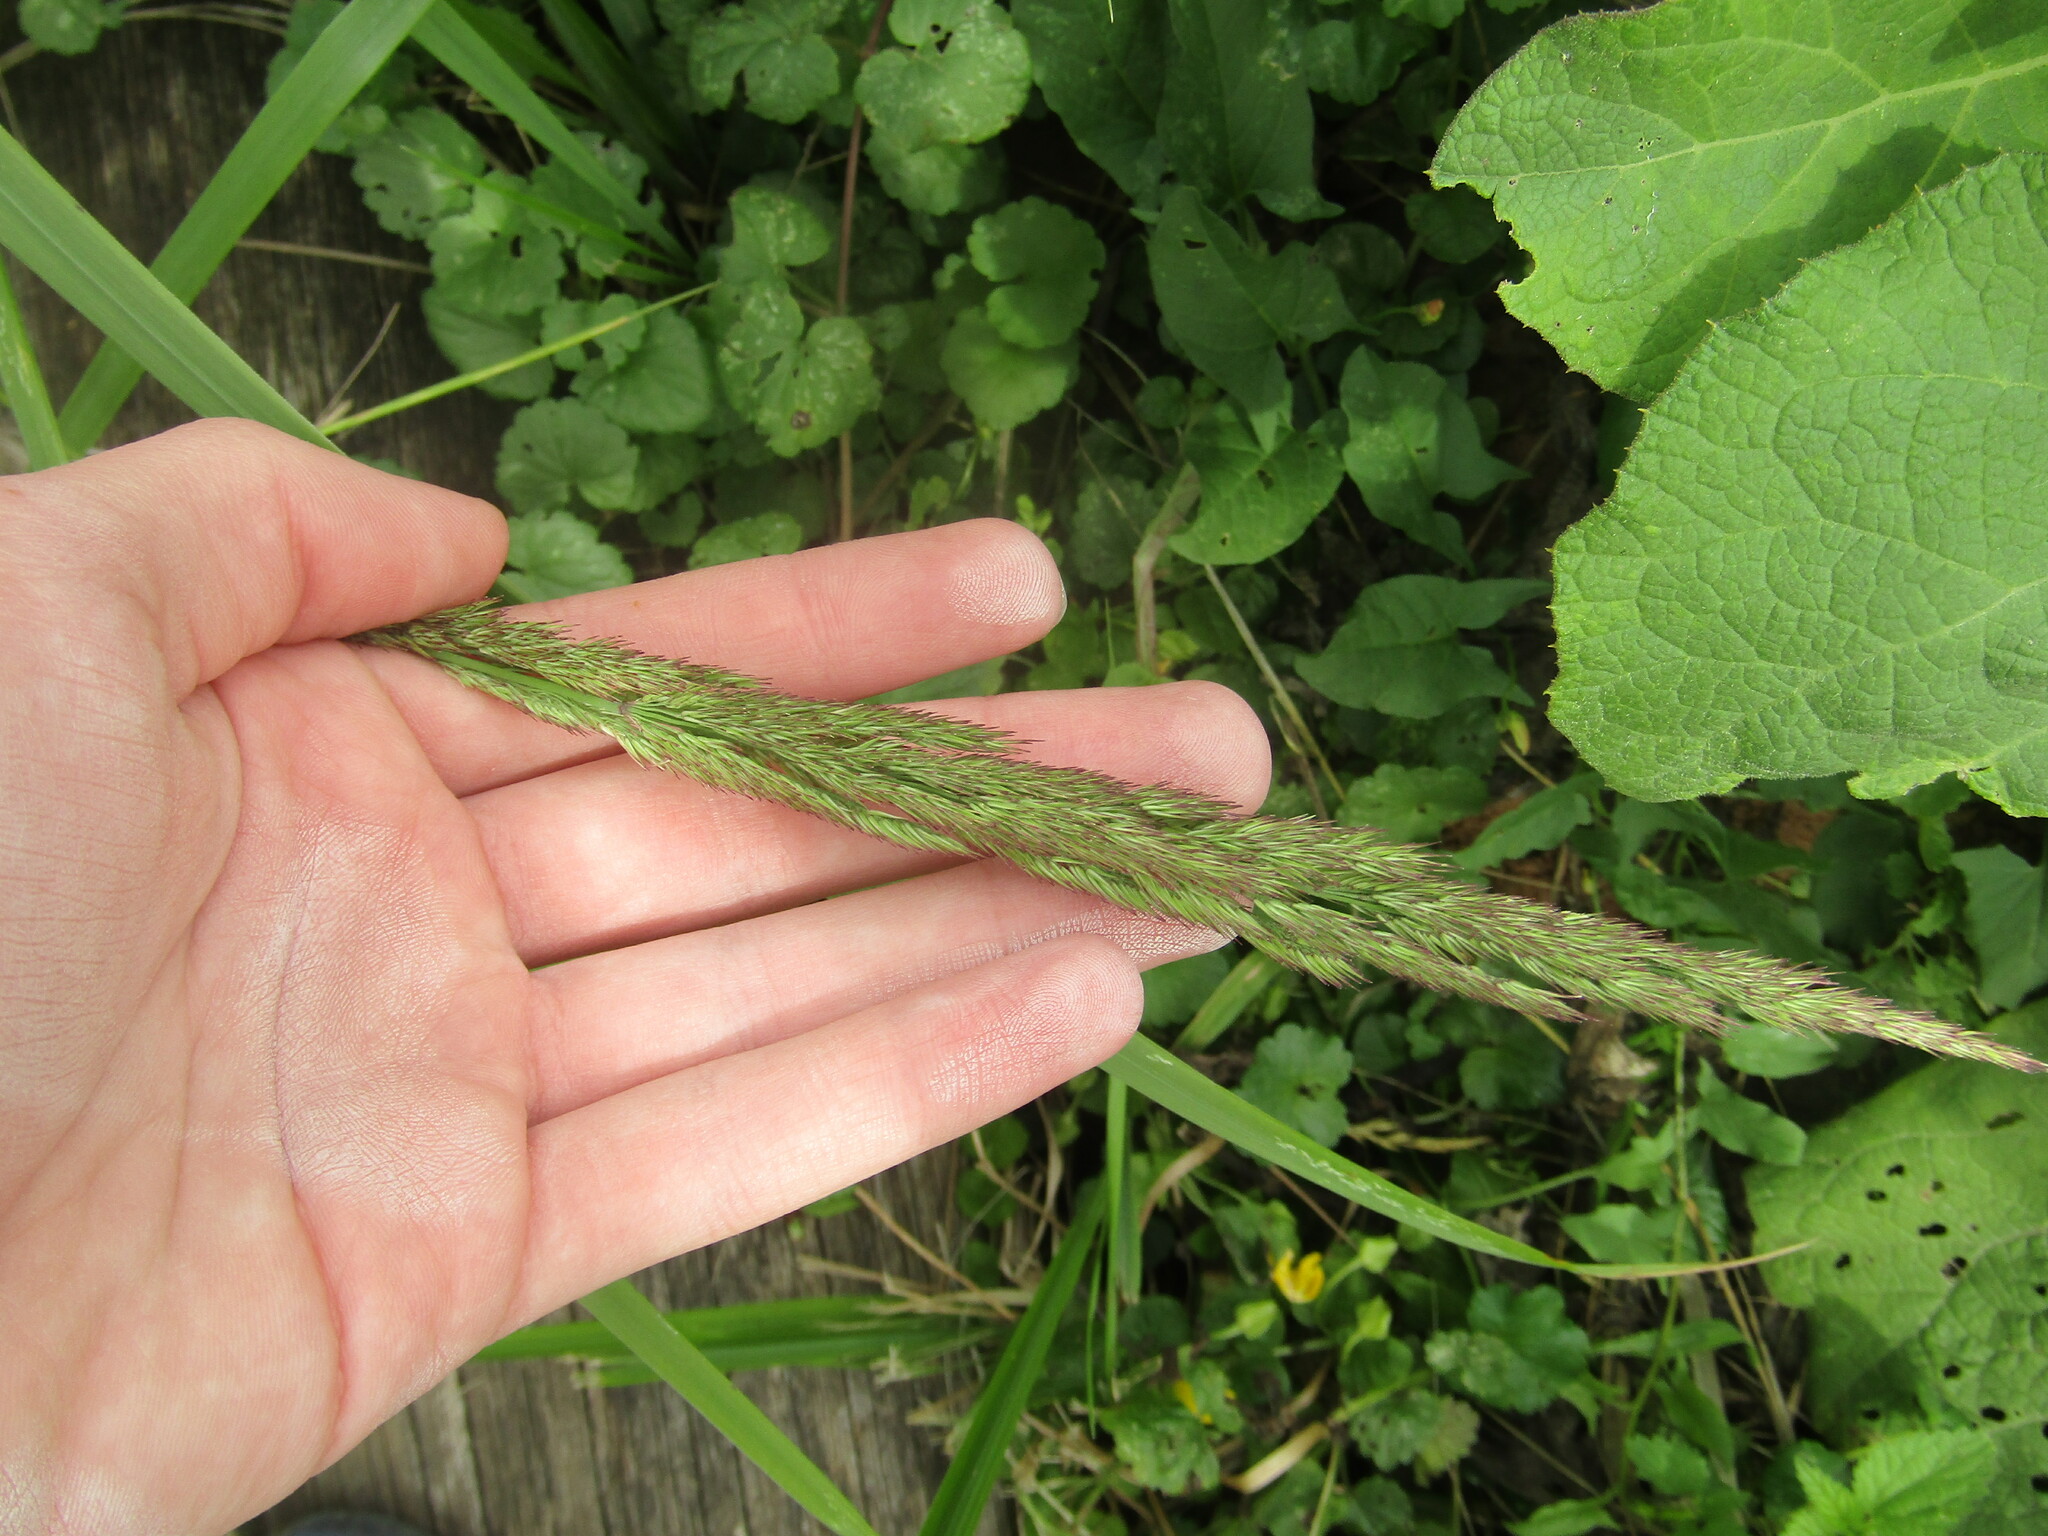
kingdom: Plantae
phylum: Tracheophyta
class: Liliopsida
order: Poales
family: Poaceae
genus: Calamagrostis
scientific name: Calamagrostis epigejos
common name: Wood small-reed
